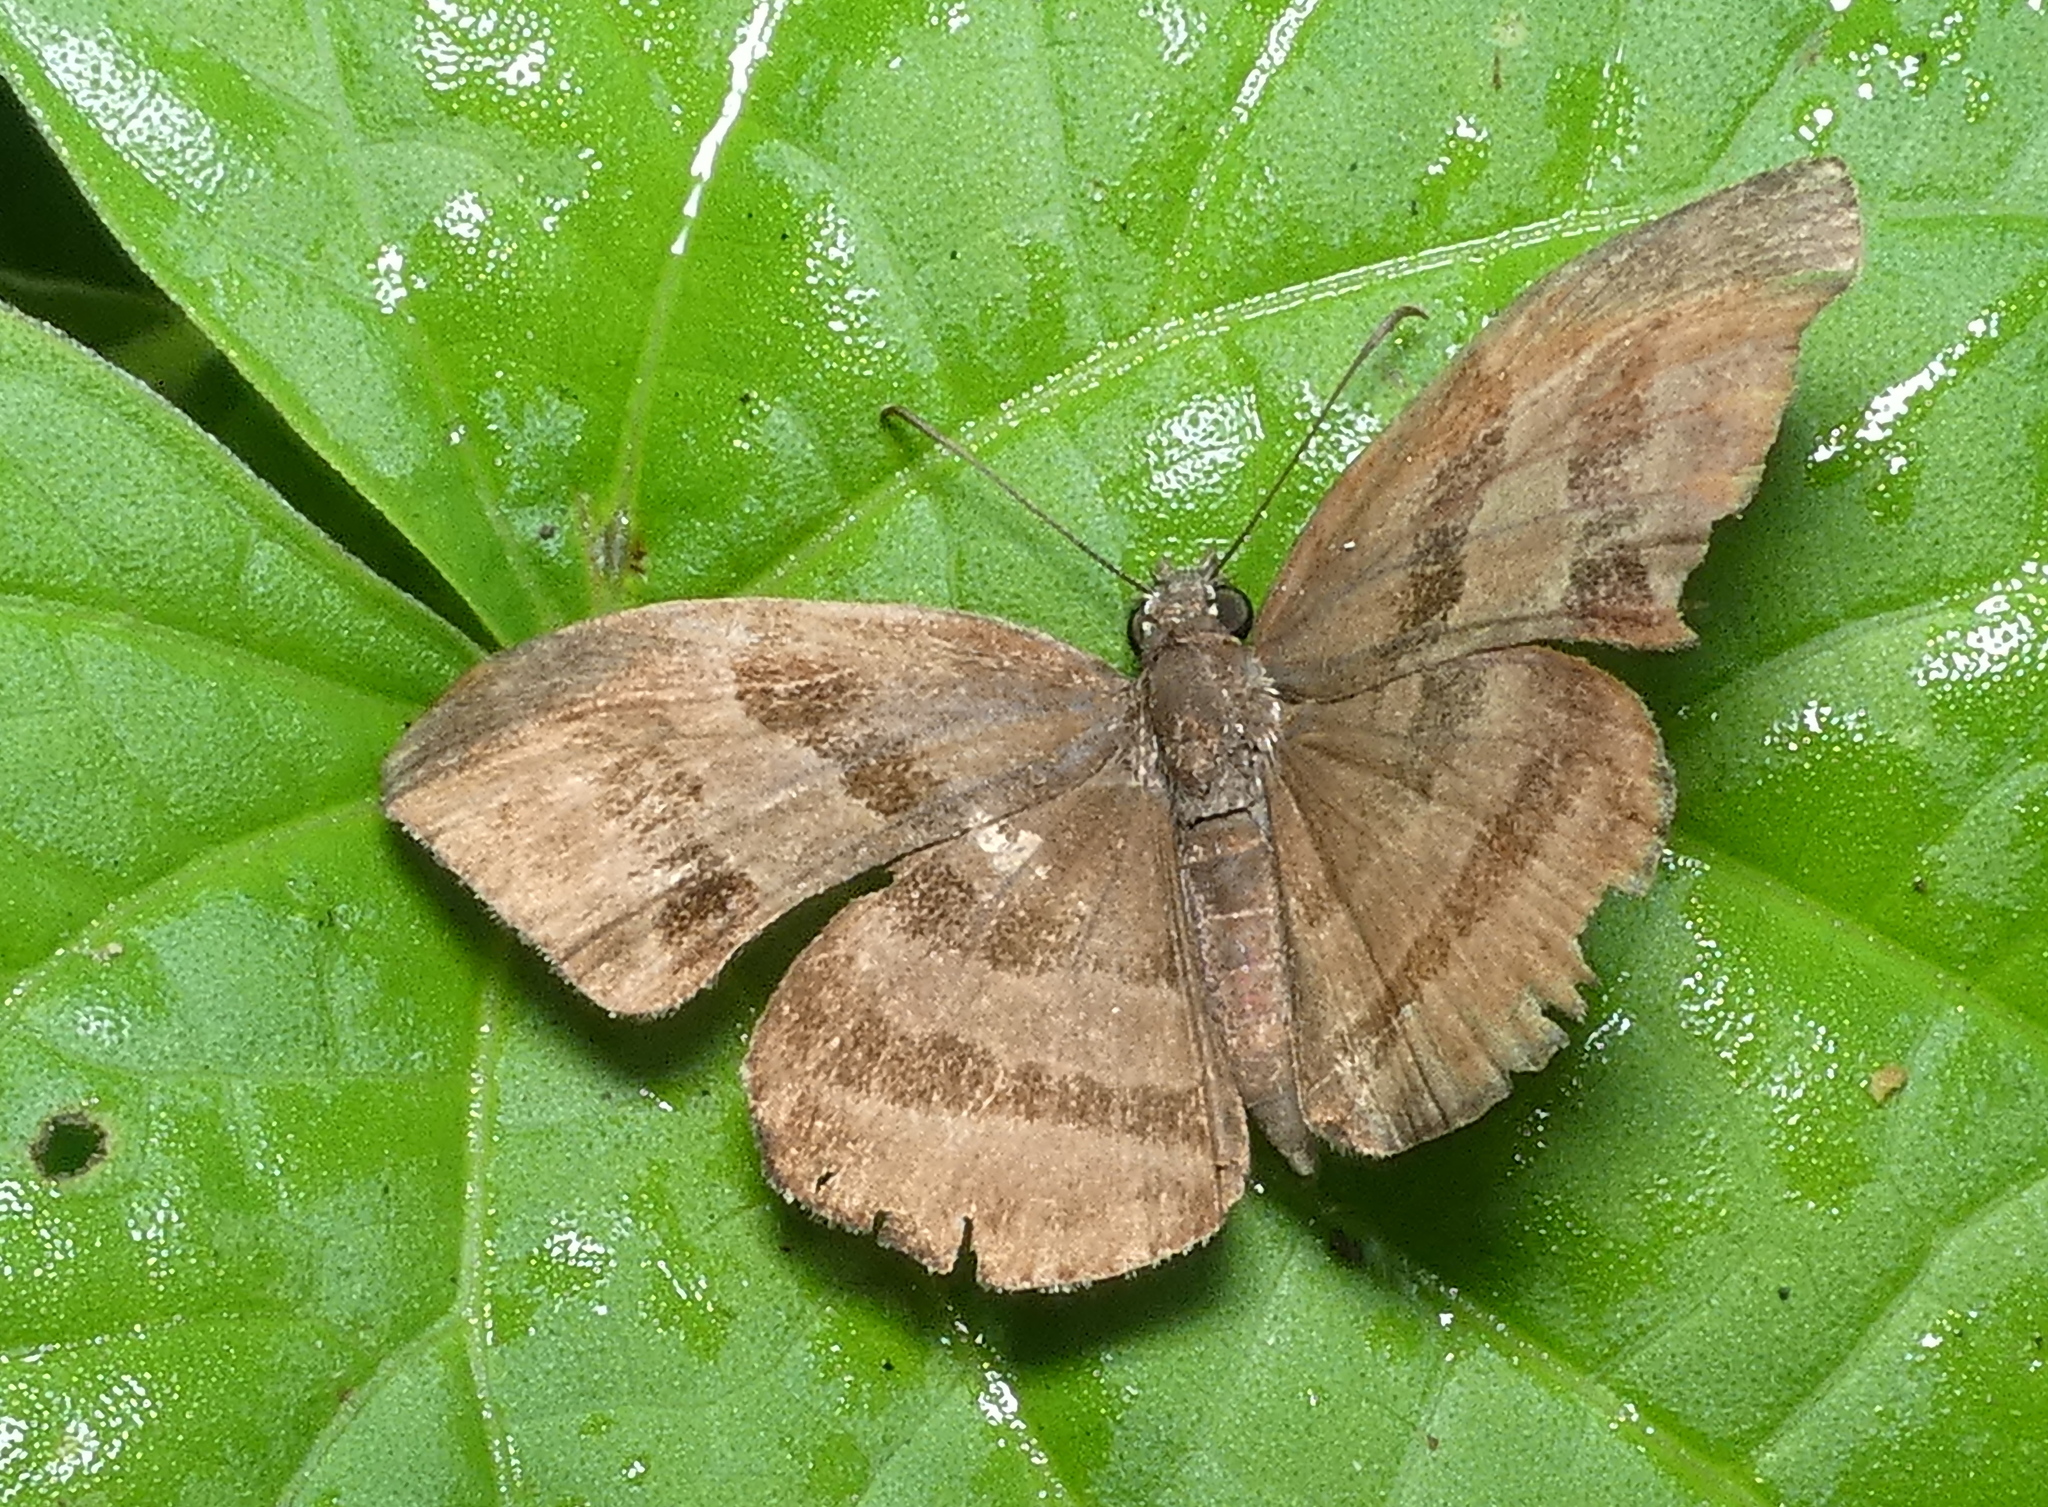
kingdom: Animalia
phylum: Arthropoda
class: Insecta
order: Lepidoptera
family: Hesperiidae
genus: Trina
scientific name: Trina geometrina
